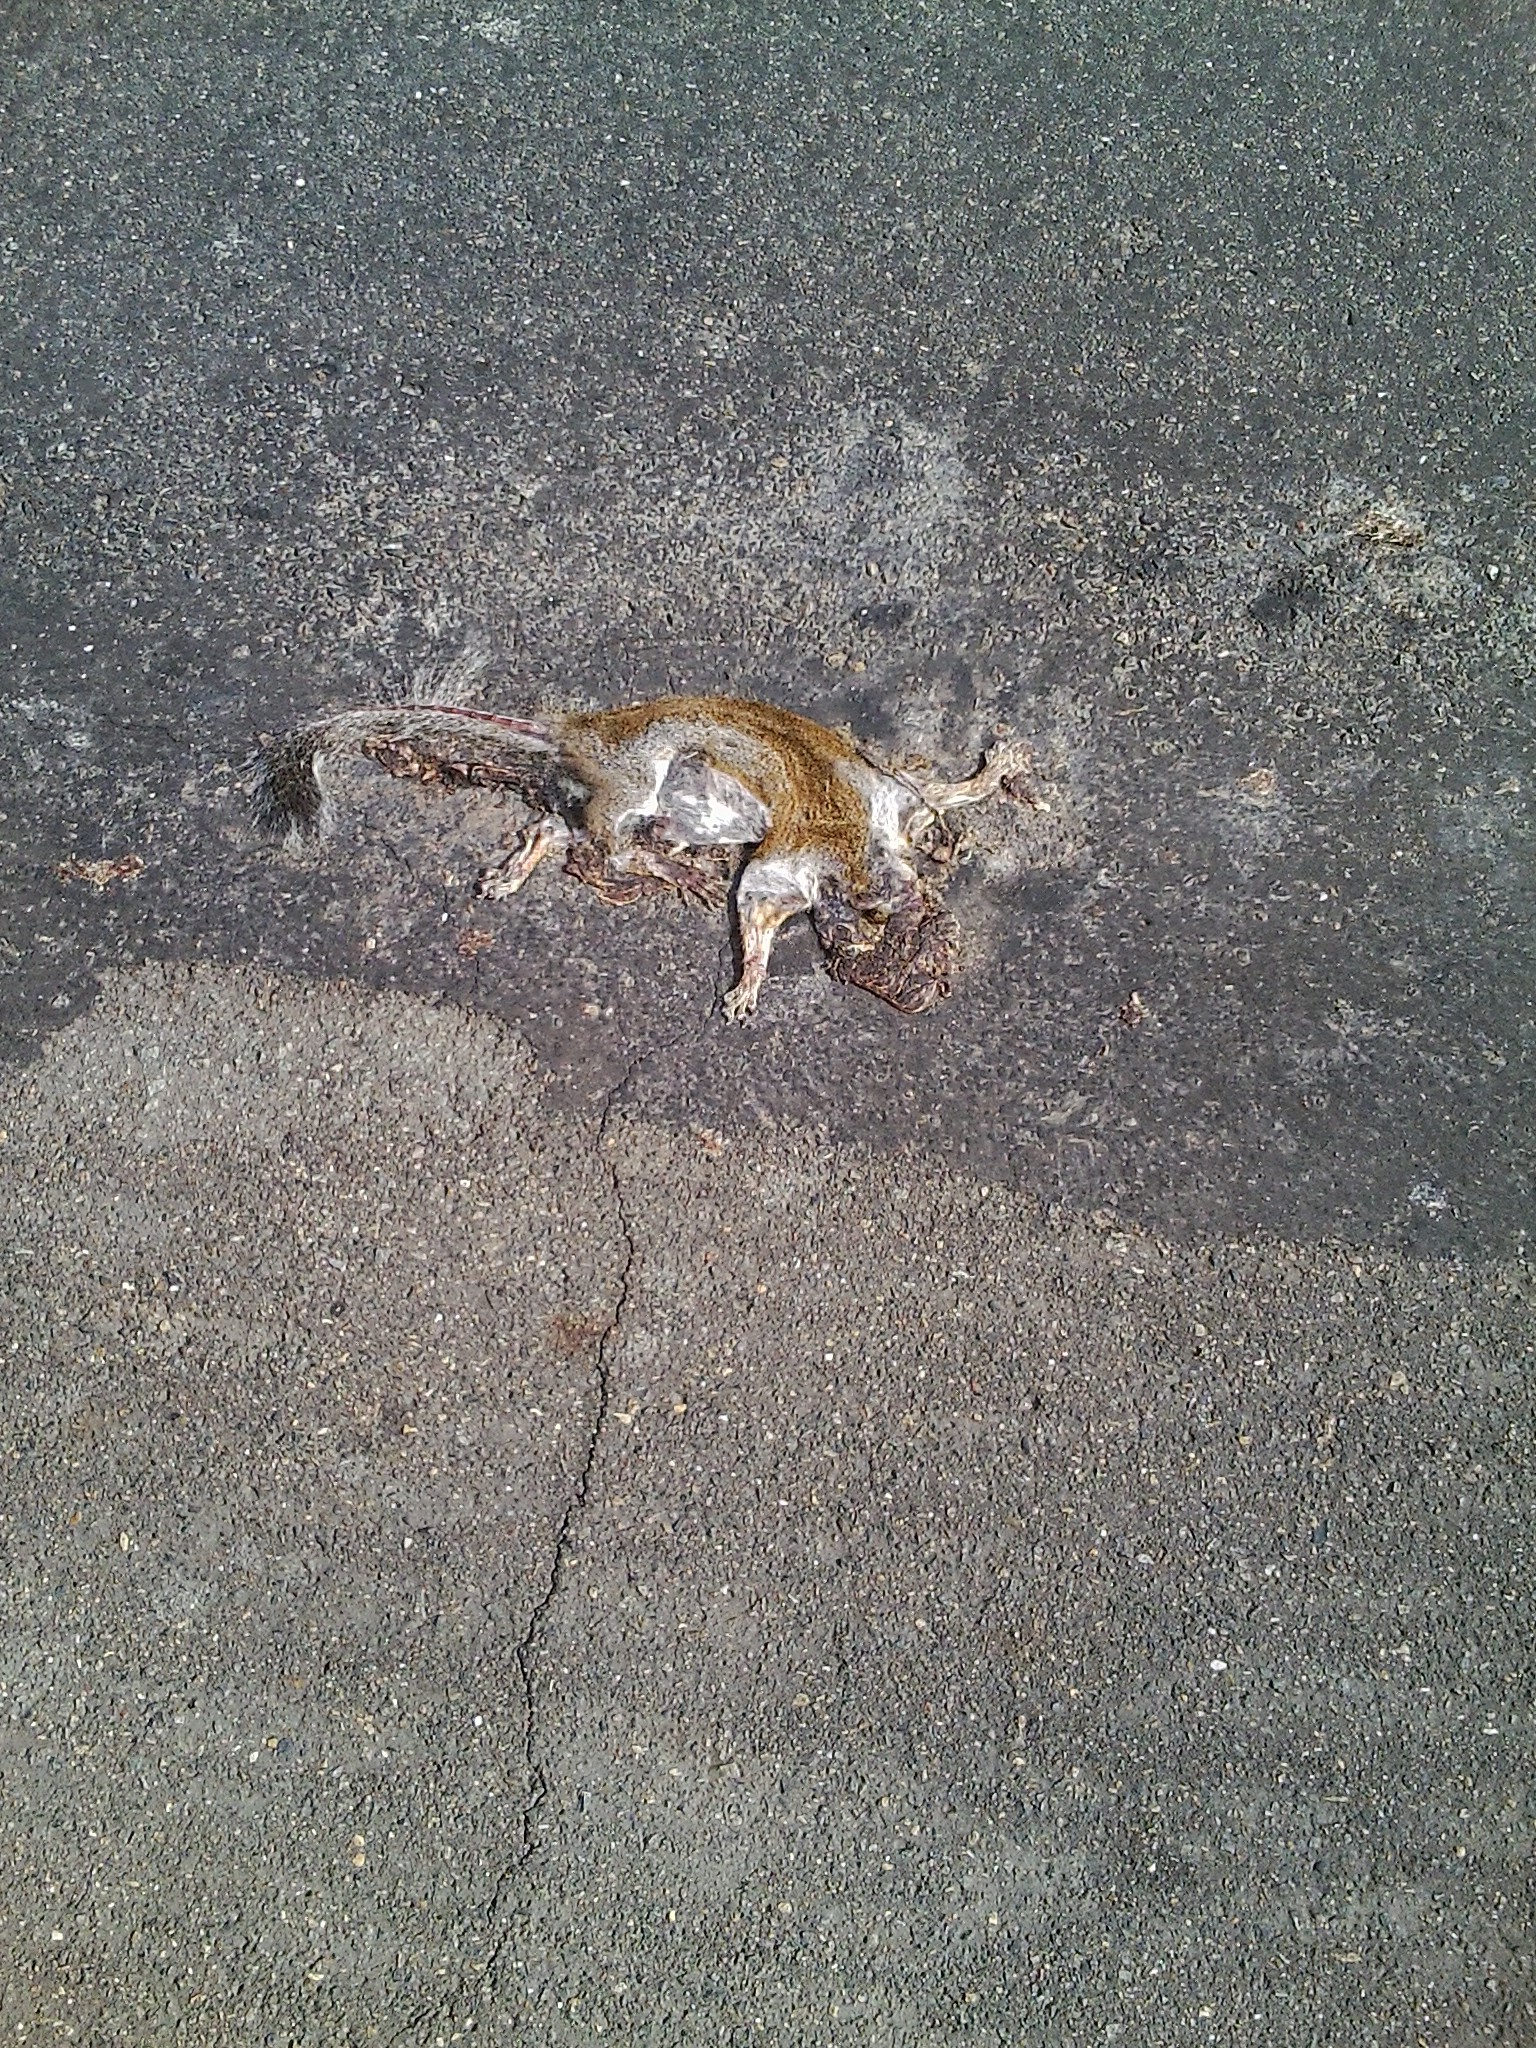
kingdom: Animalia
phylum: Chordata
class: Mammalia
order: Rodentia
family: Sciuridae
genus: Sciurus
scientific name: Sciurus carolinensis
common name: Eastern gray squirrel
